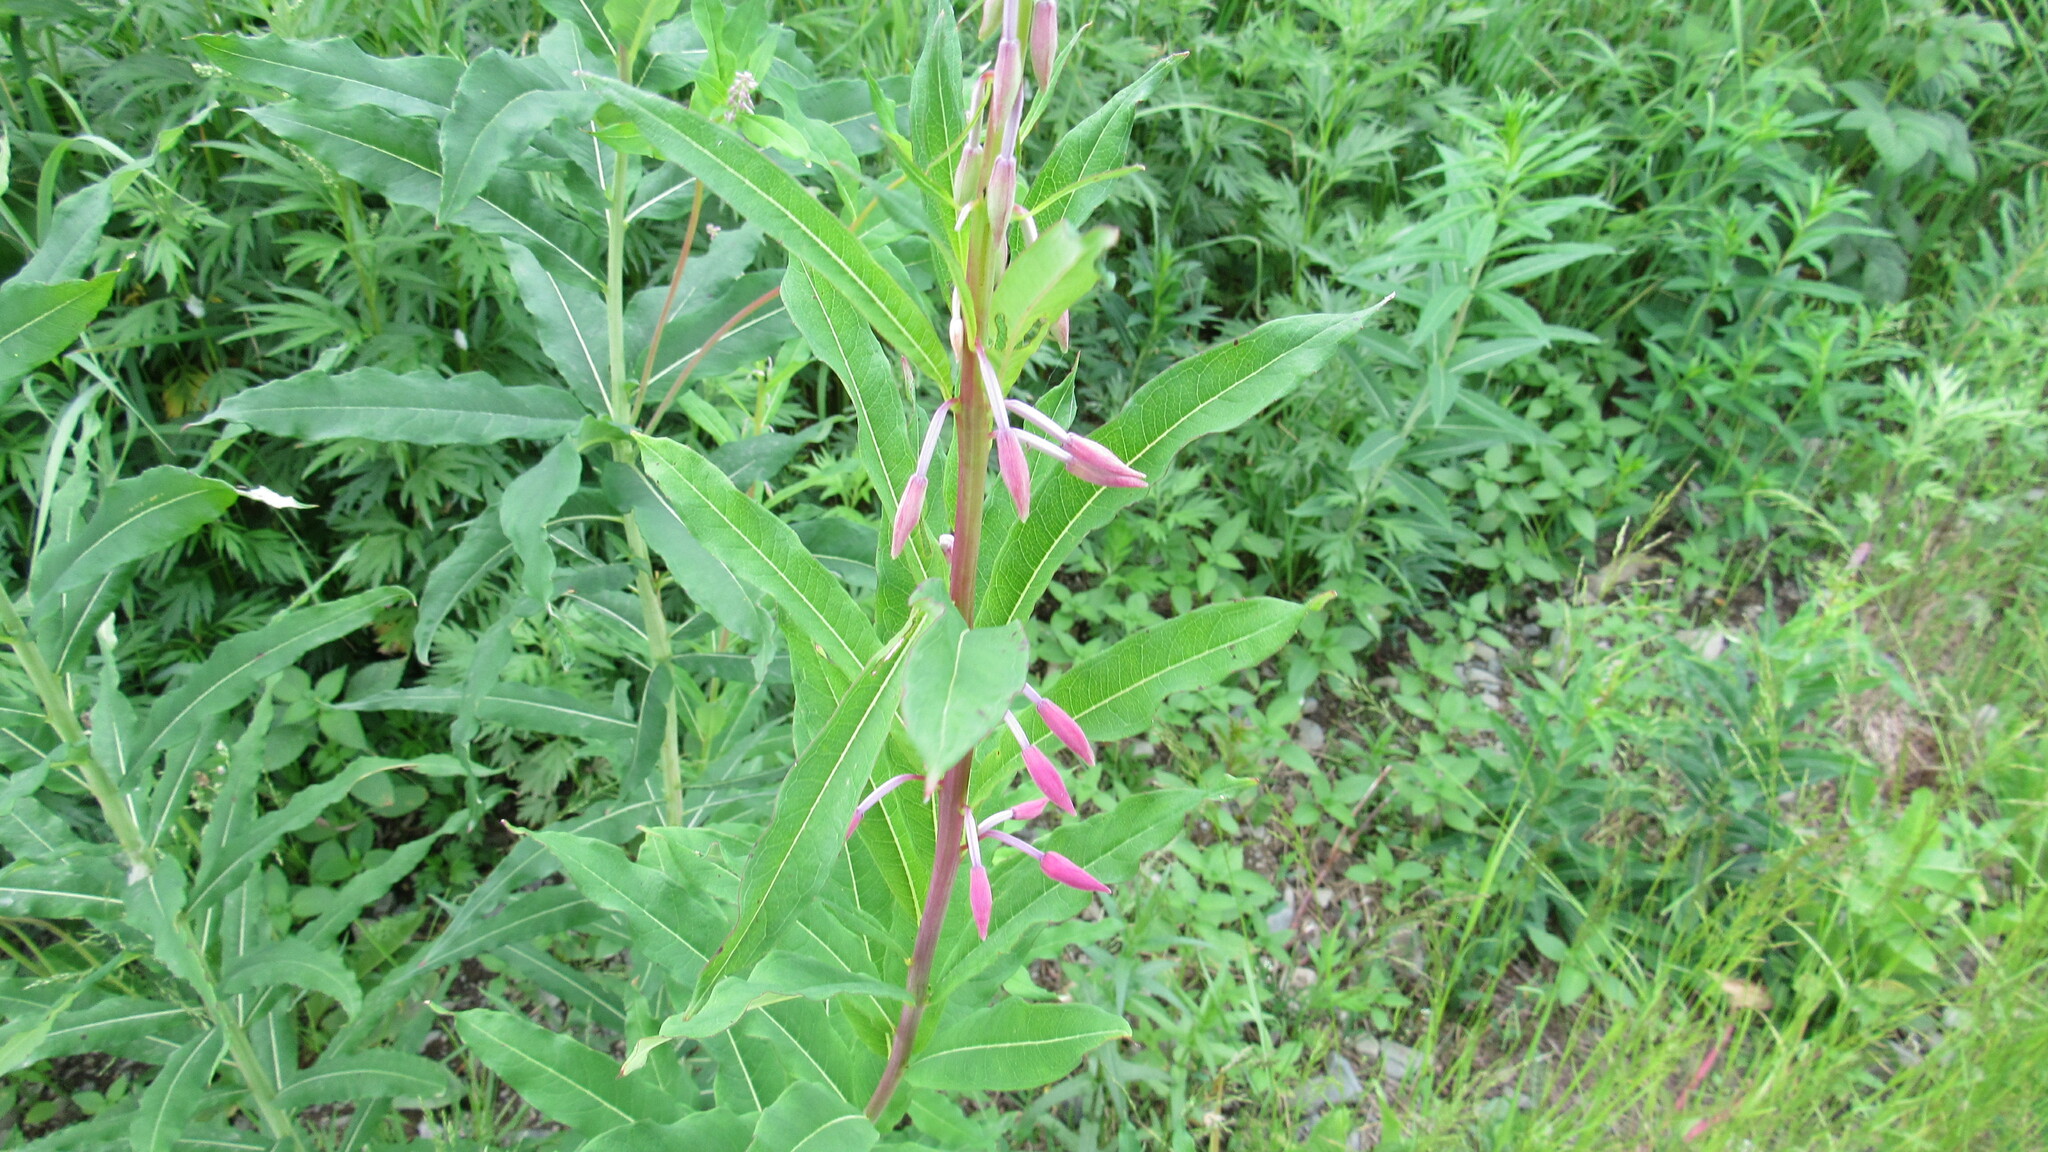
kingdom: Plantae
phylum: Tracheophyta
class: Magnoliopsida
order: Myrtales
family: Onagraceae
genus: Chamaenerion
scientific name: Chamaenerion angustifolium
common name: Fireweed
